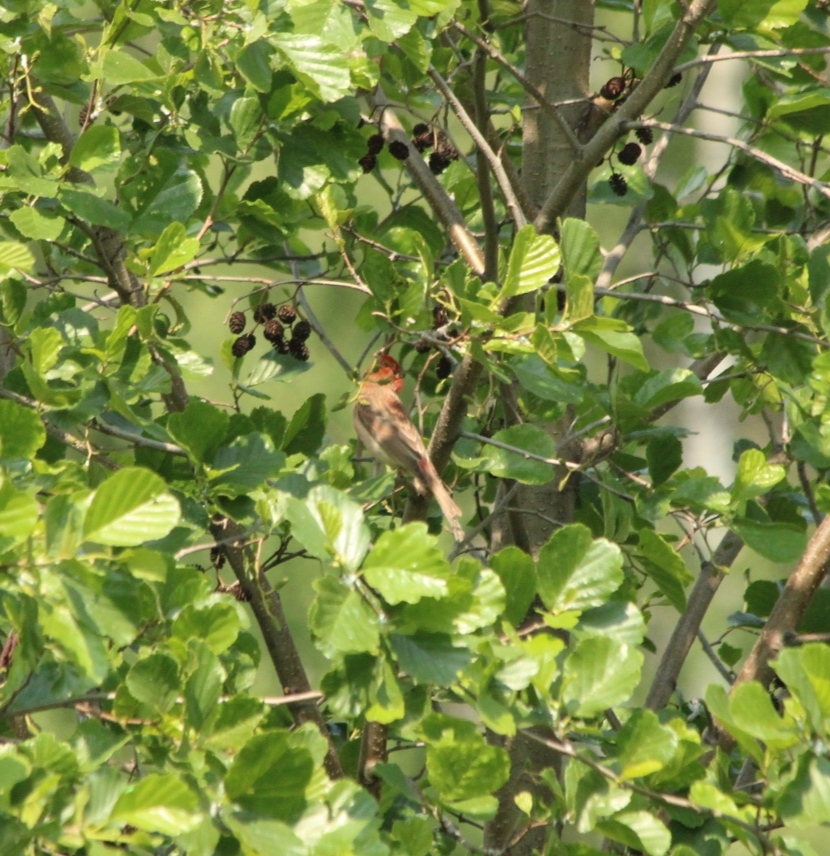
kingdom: Animalia
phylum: Chordata
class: Aves
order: Passeriformes
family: Fringillidae
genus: Carpodacus
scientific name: Carpodacus erythrinus
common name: Common rosefinch
